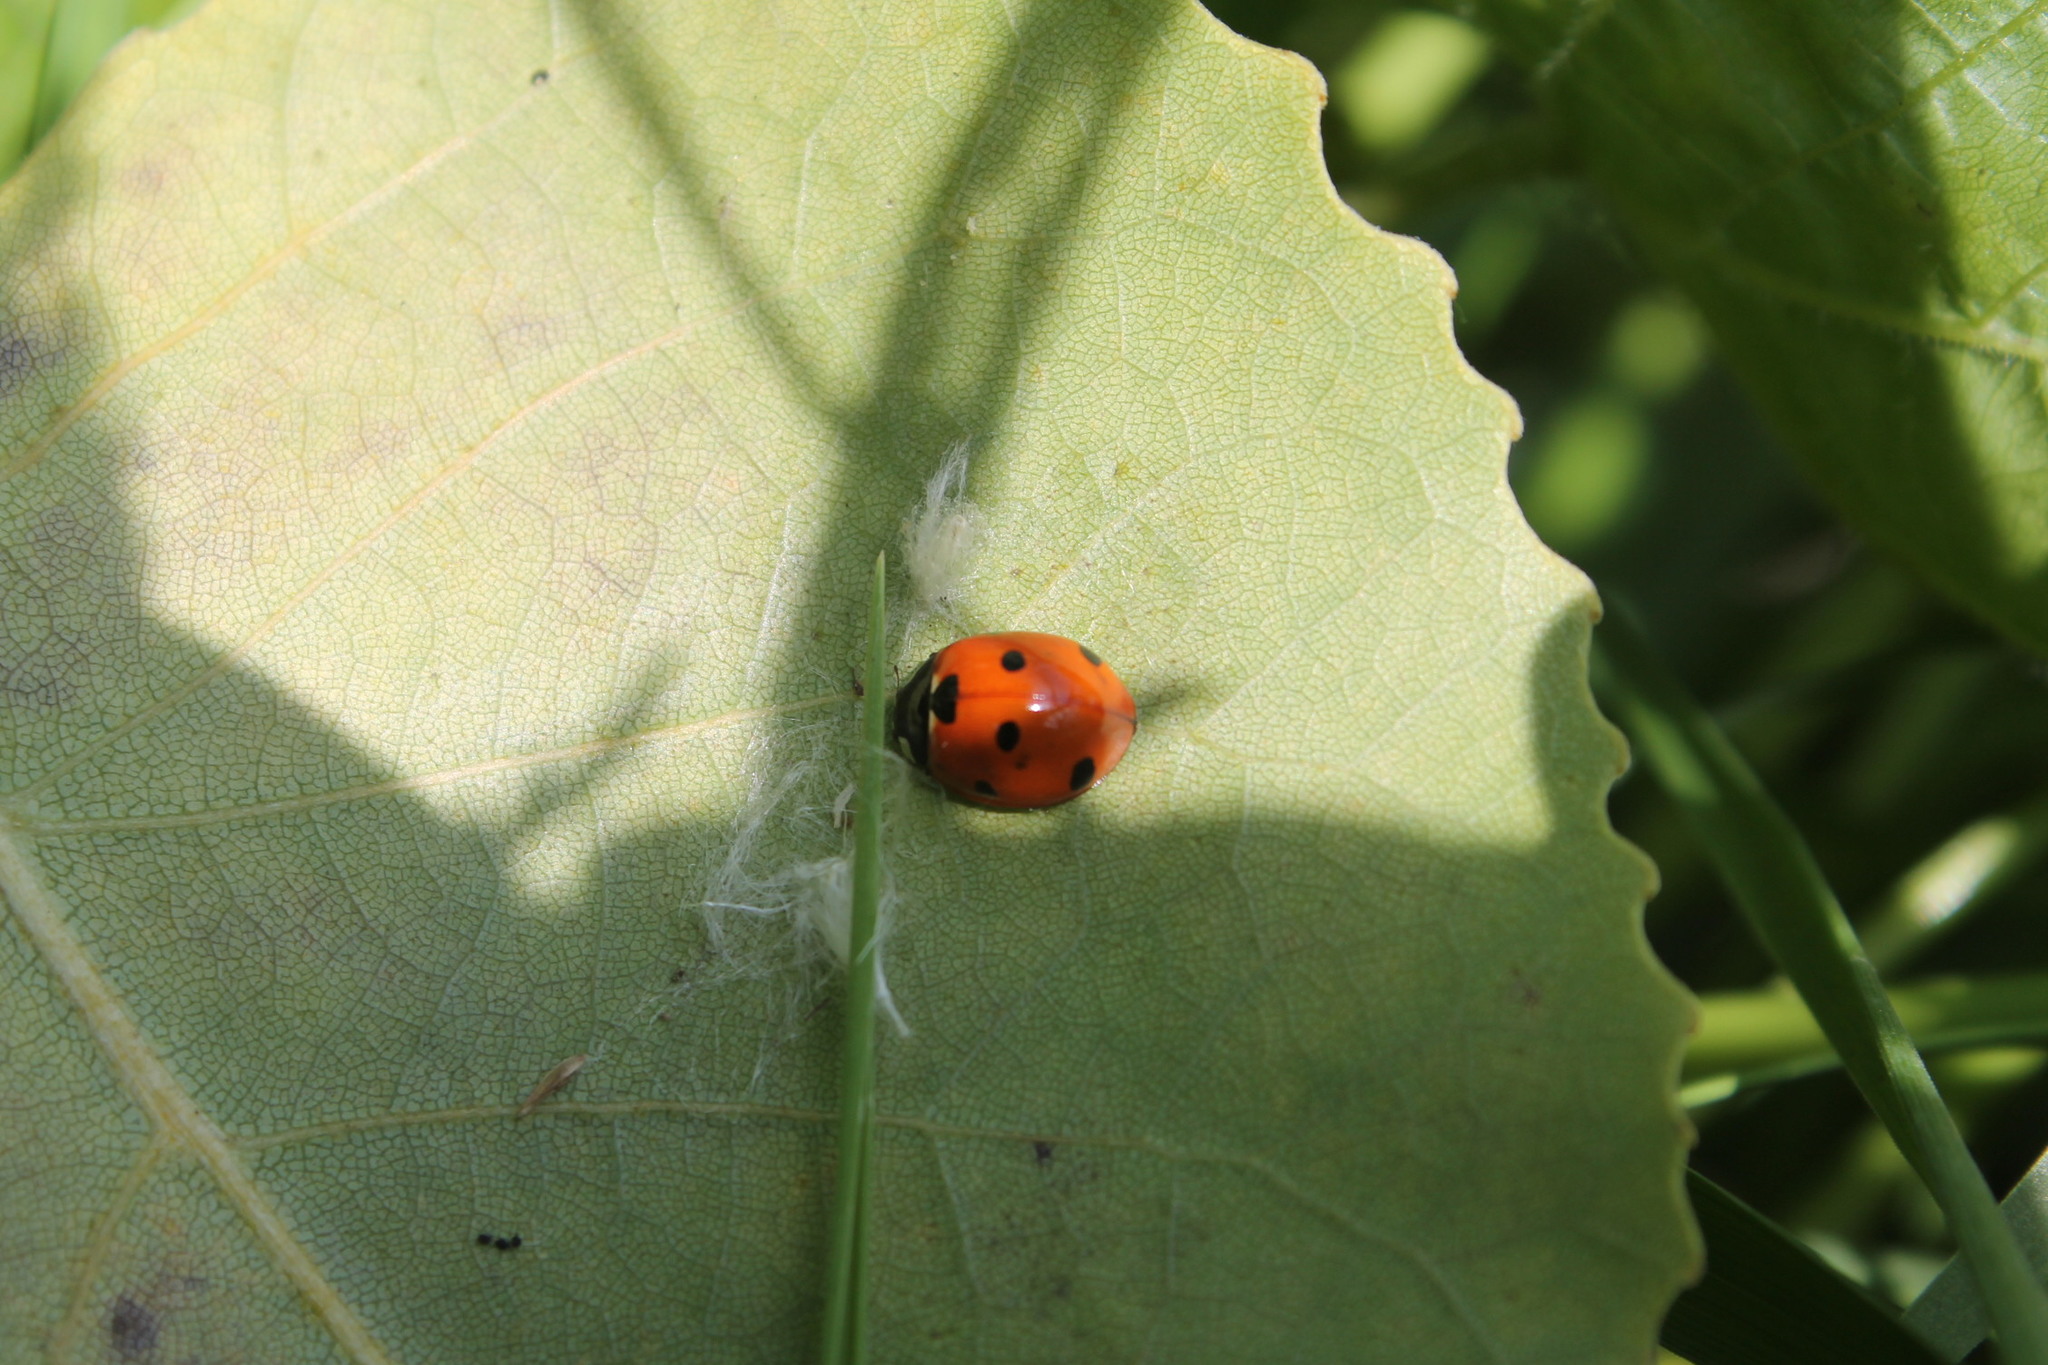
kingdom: Animalia
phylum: Arthropoda
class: Insecta
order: Coleoptera
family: Coccinellidae
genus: Coccinella
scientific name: Coccinella septempunctata
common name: Sevenspotted lady beetle
